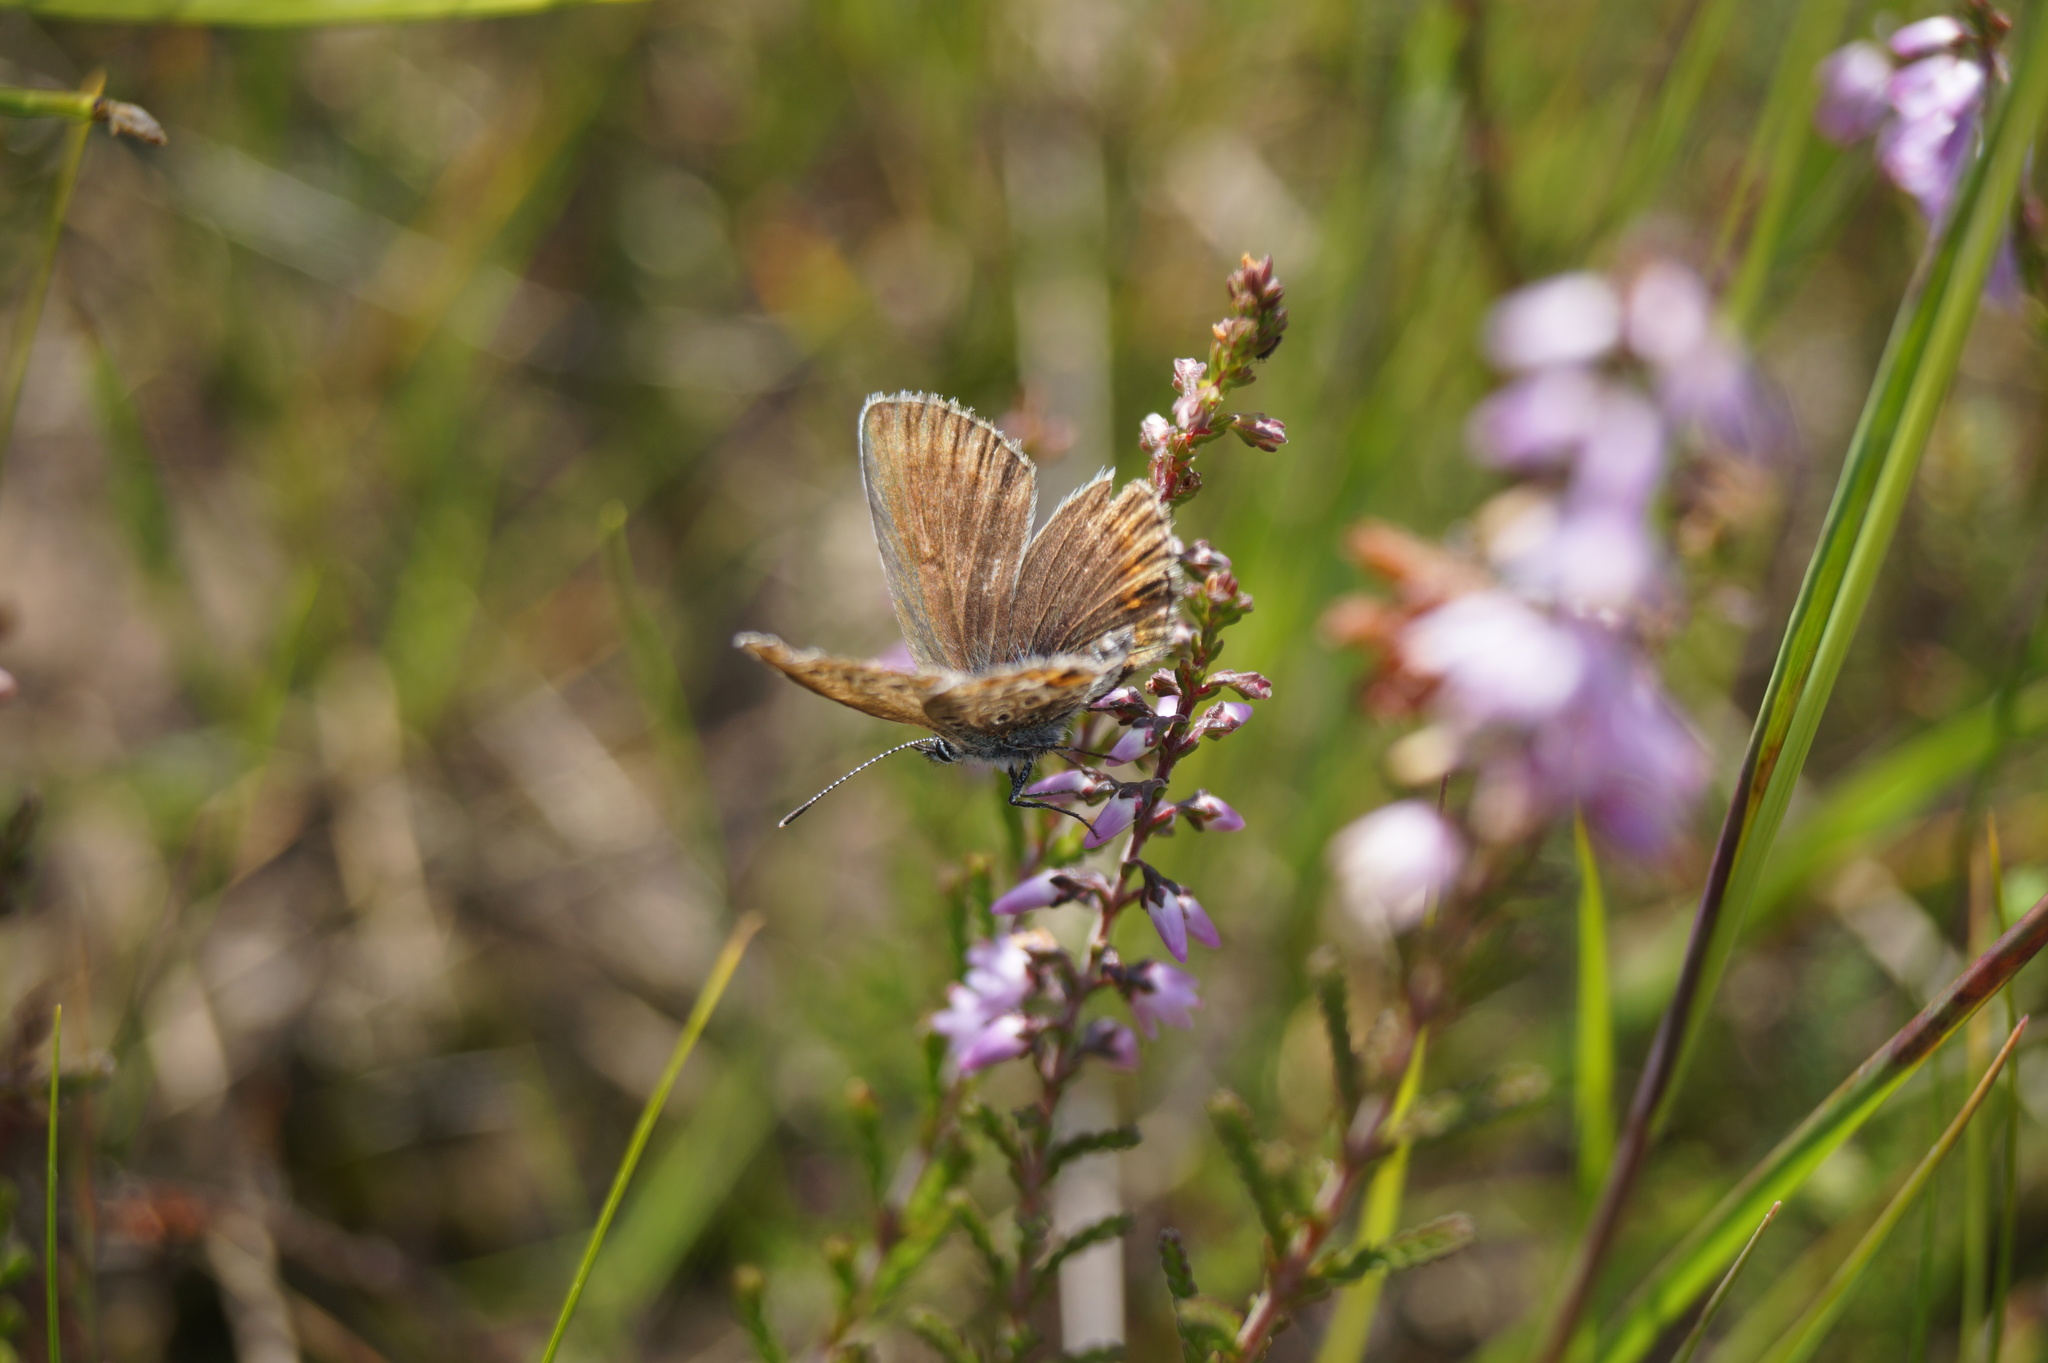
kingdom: Animalia
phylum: Arthropoda
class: Insecta
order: Lepidoptera
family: Lycaenidae
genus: Plebejus
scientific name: Plebejus argus
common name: Silver-studded blue
